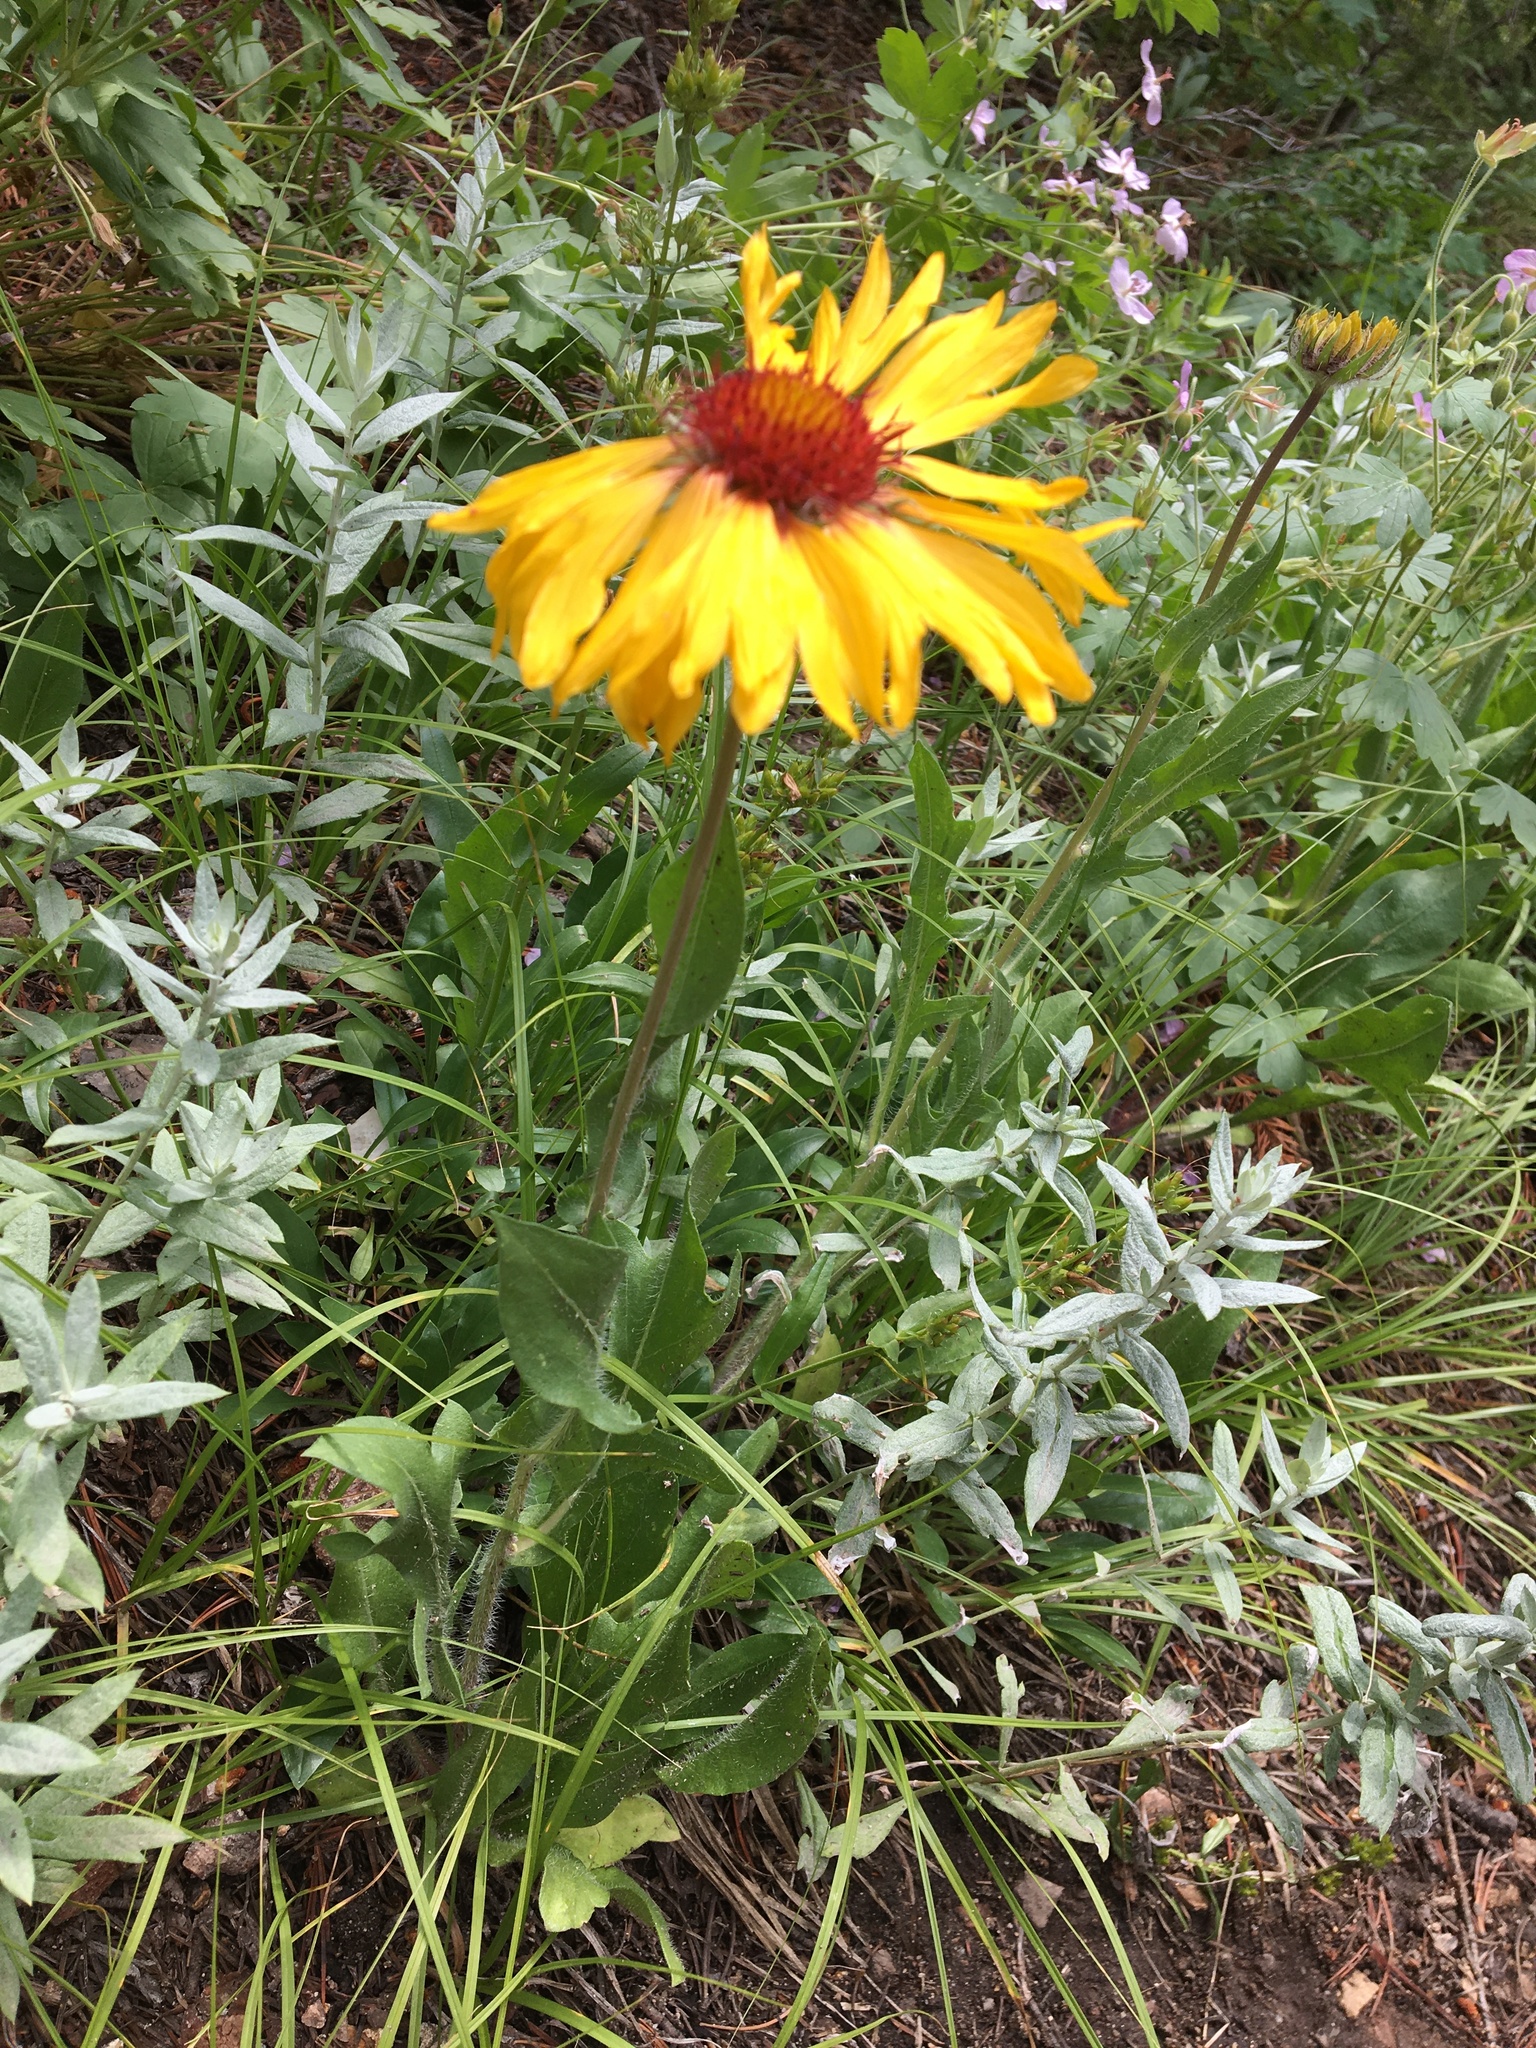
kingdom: Plantae
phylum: Tracheophyta
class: Magnoliopsida
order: Asterales
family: Asteraceae
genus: Gaillardia
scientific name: Gaillardia aristata
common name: Blanket-flower
